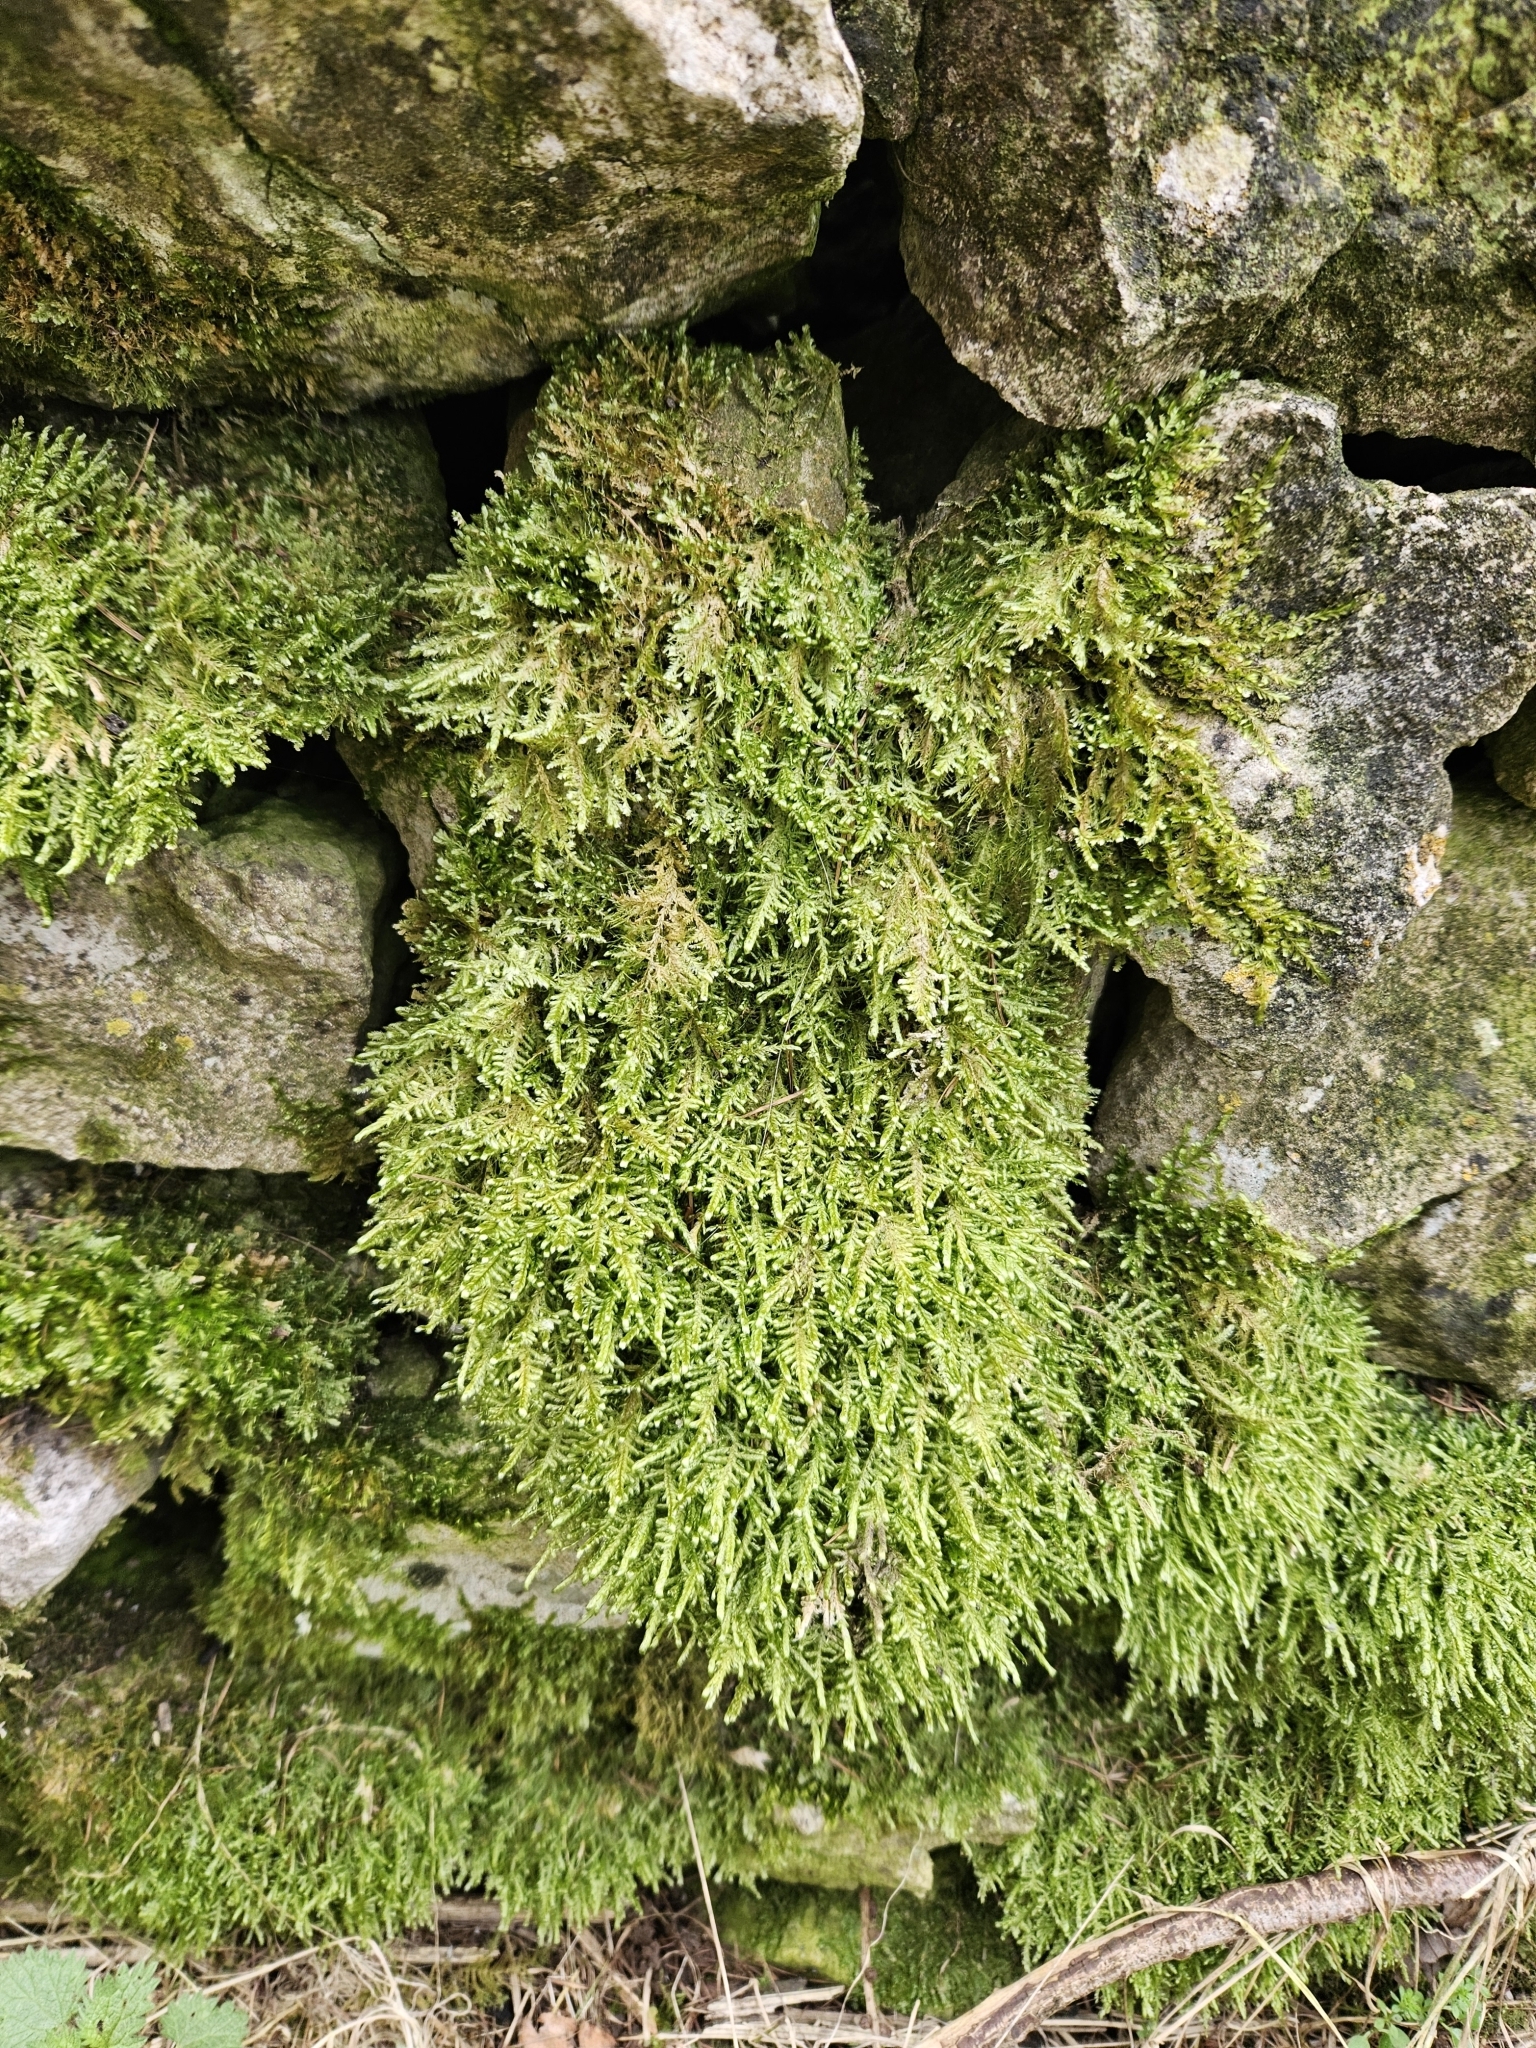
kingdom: Plantae
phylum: Bryophyta
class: Bryopsida
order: Hypnales
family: Neckeraceae
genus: Alleniella
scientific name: Alleniella complanata
